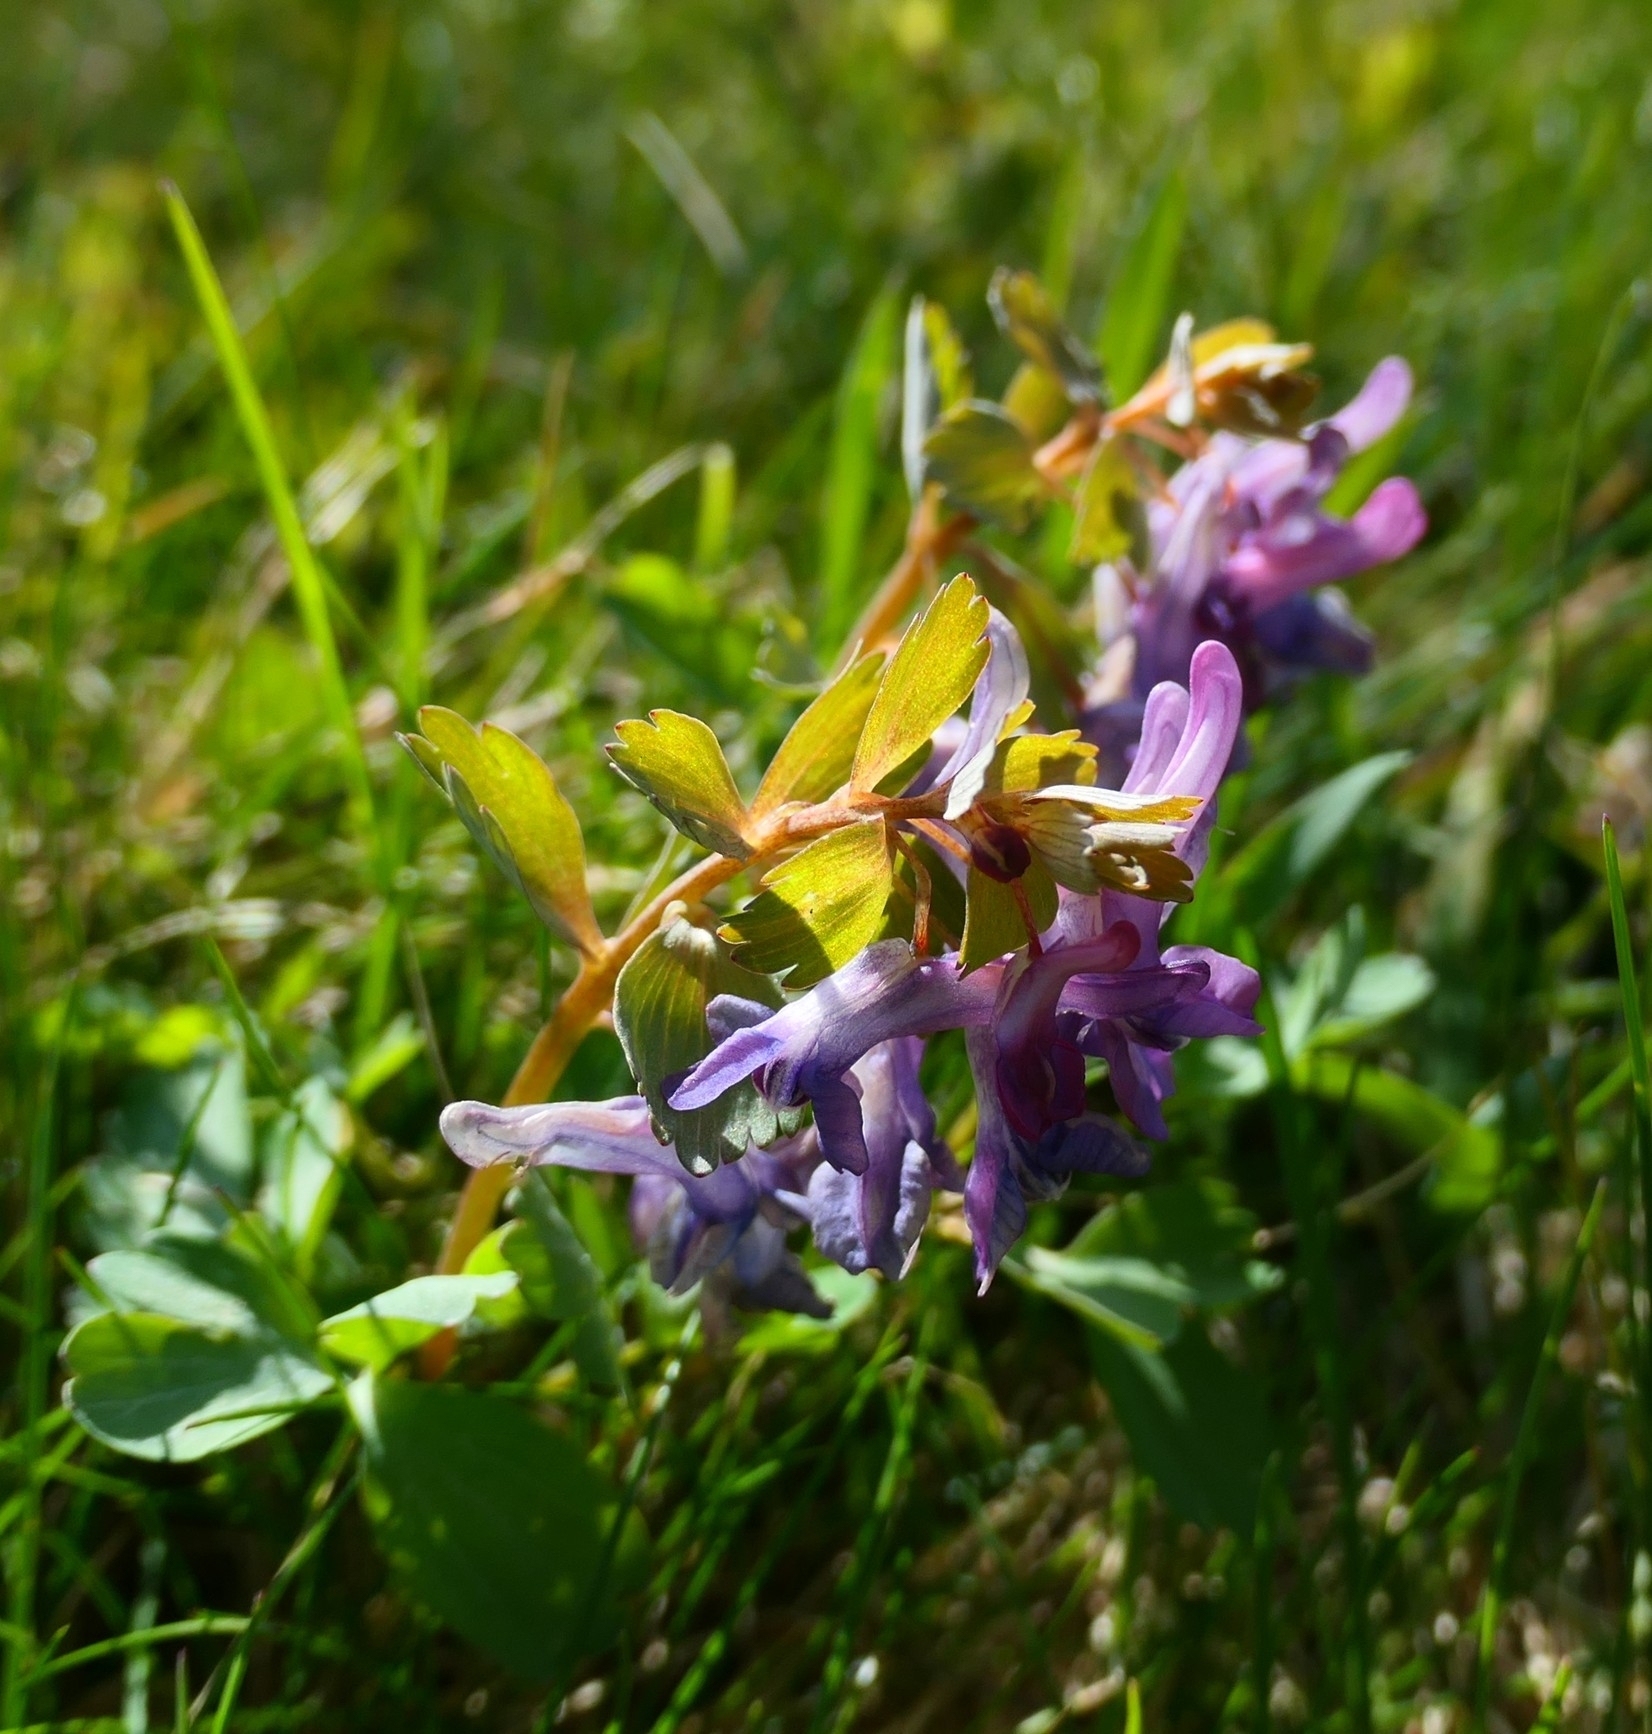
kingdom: Plantae
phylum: Tracheophyta
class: Magnoliopsida
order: Ranunculales
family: Papaveraceae
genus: Corydalis
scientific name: Corydalis solida
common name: Bird-in-a-bush
